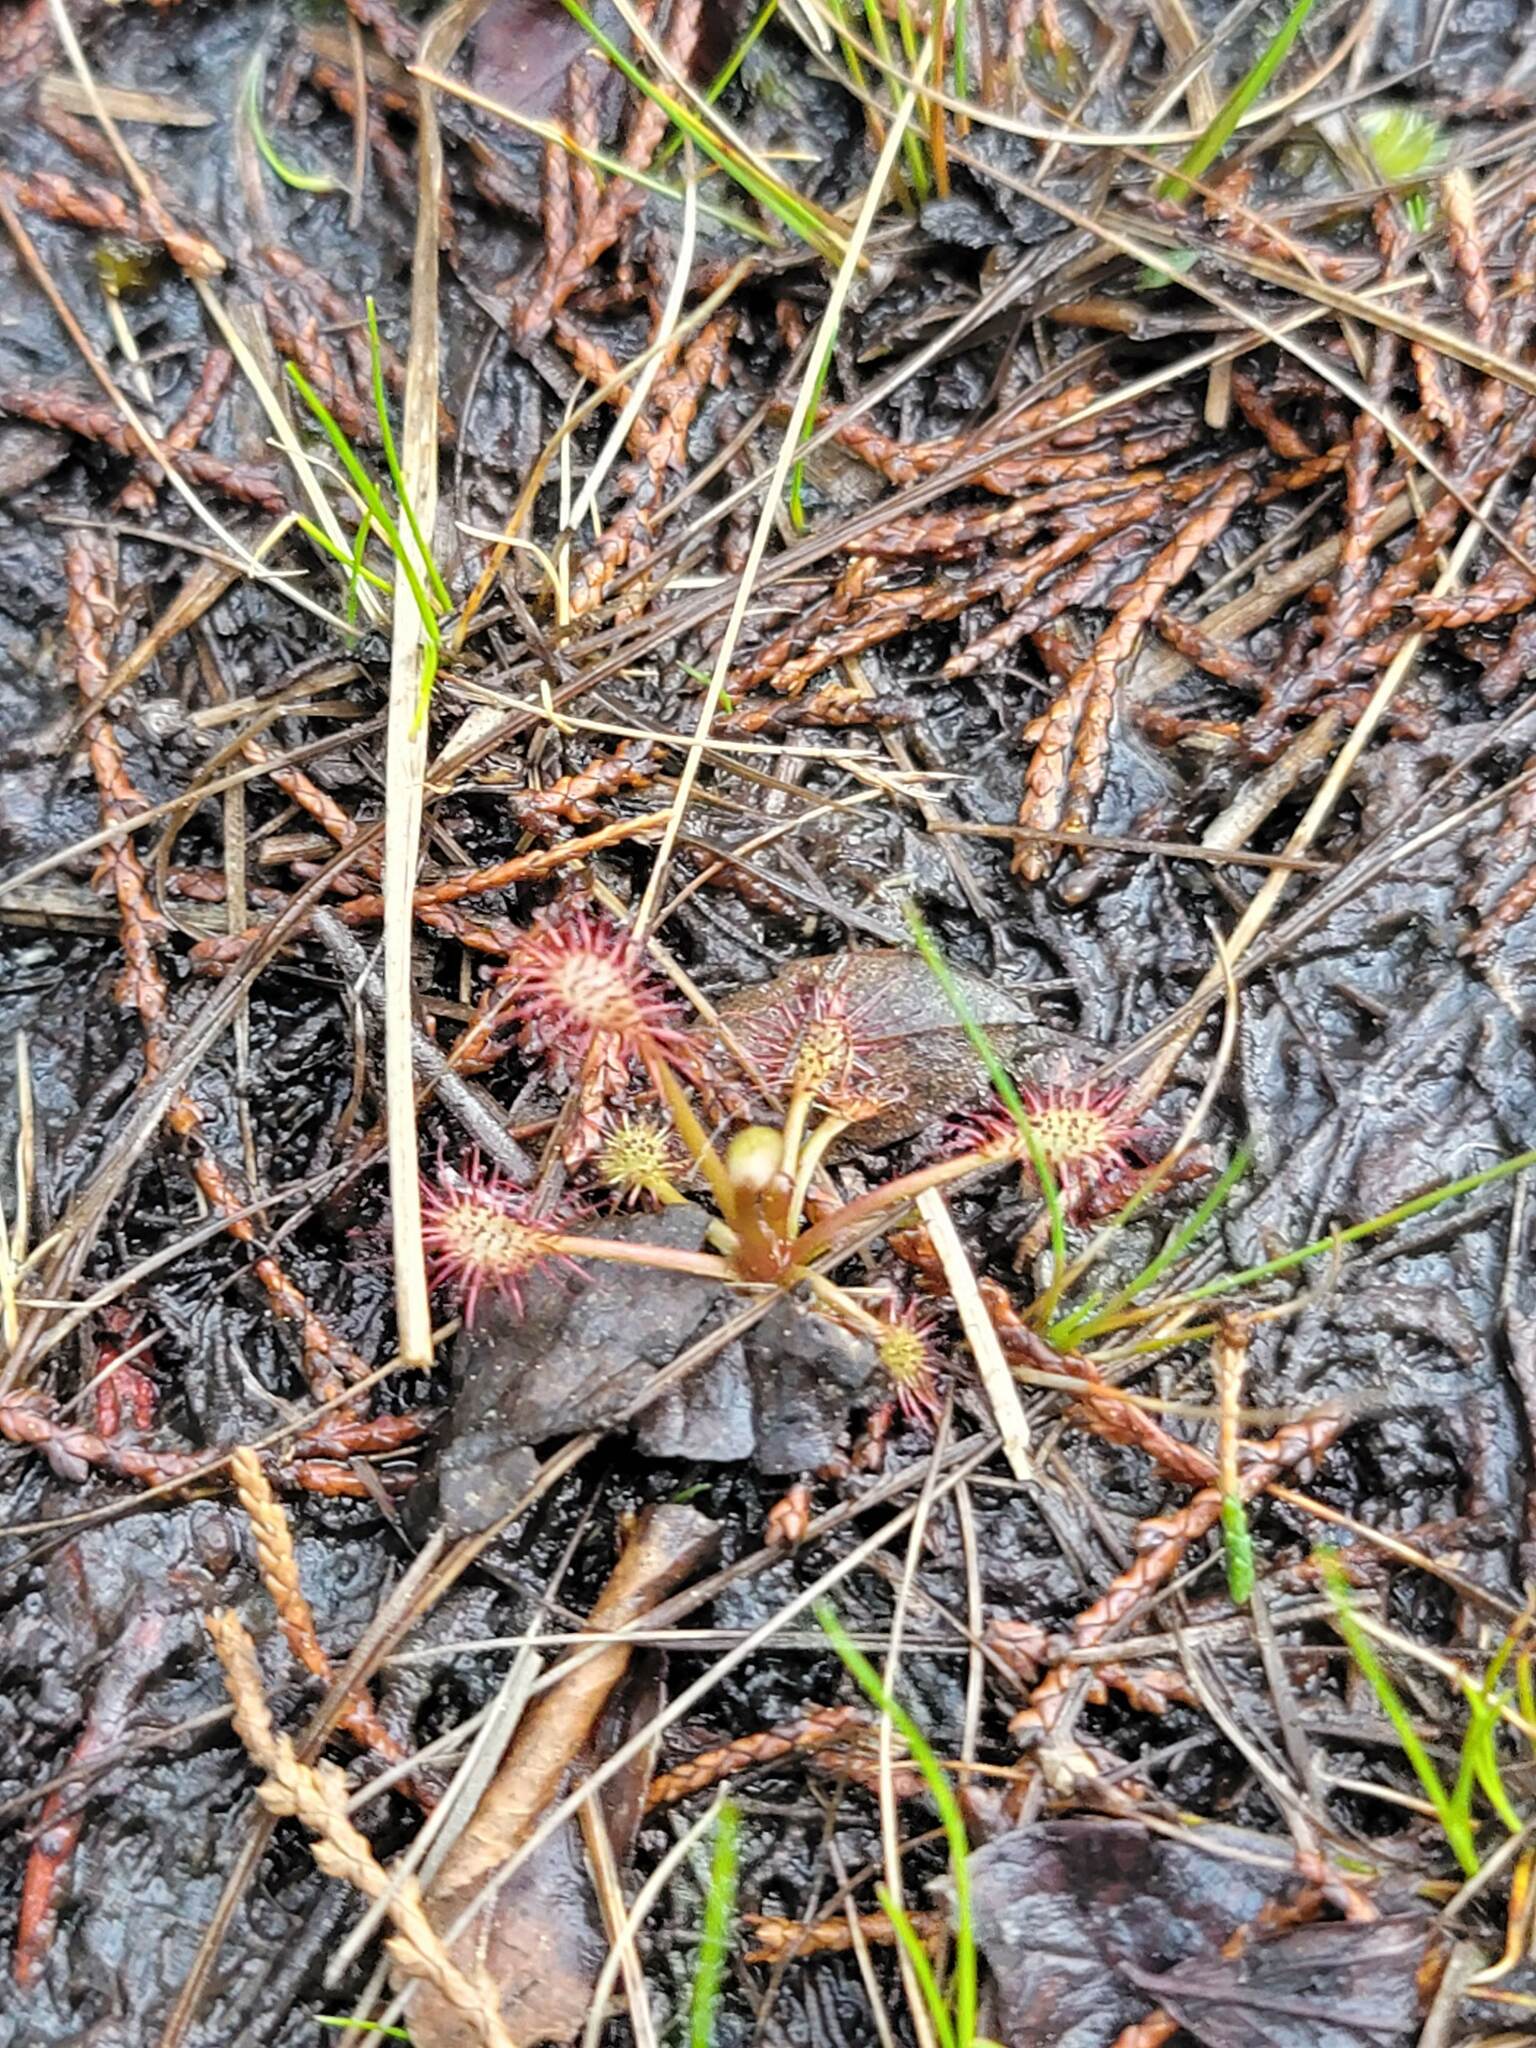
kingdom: Plantae
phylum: Tracheophyta
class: Magnoliopsida
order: Caryophyllales
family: Droseraceae
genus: Drosera
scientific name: Drosera intermedia
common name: Oblong-leaved sundew
